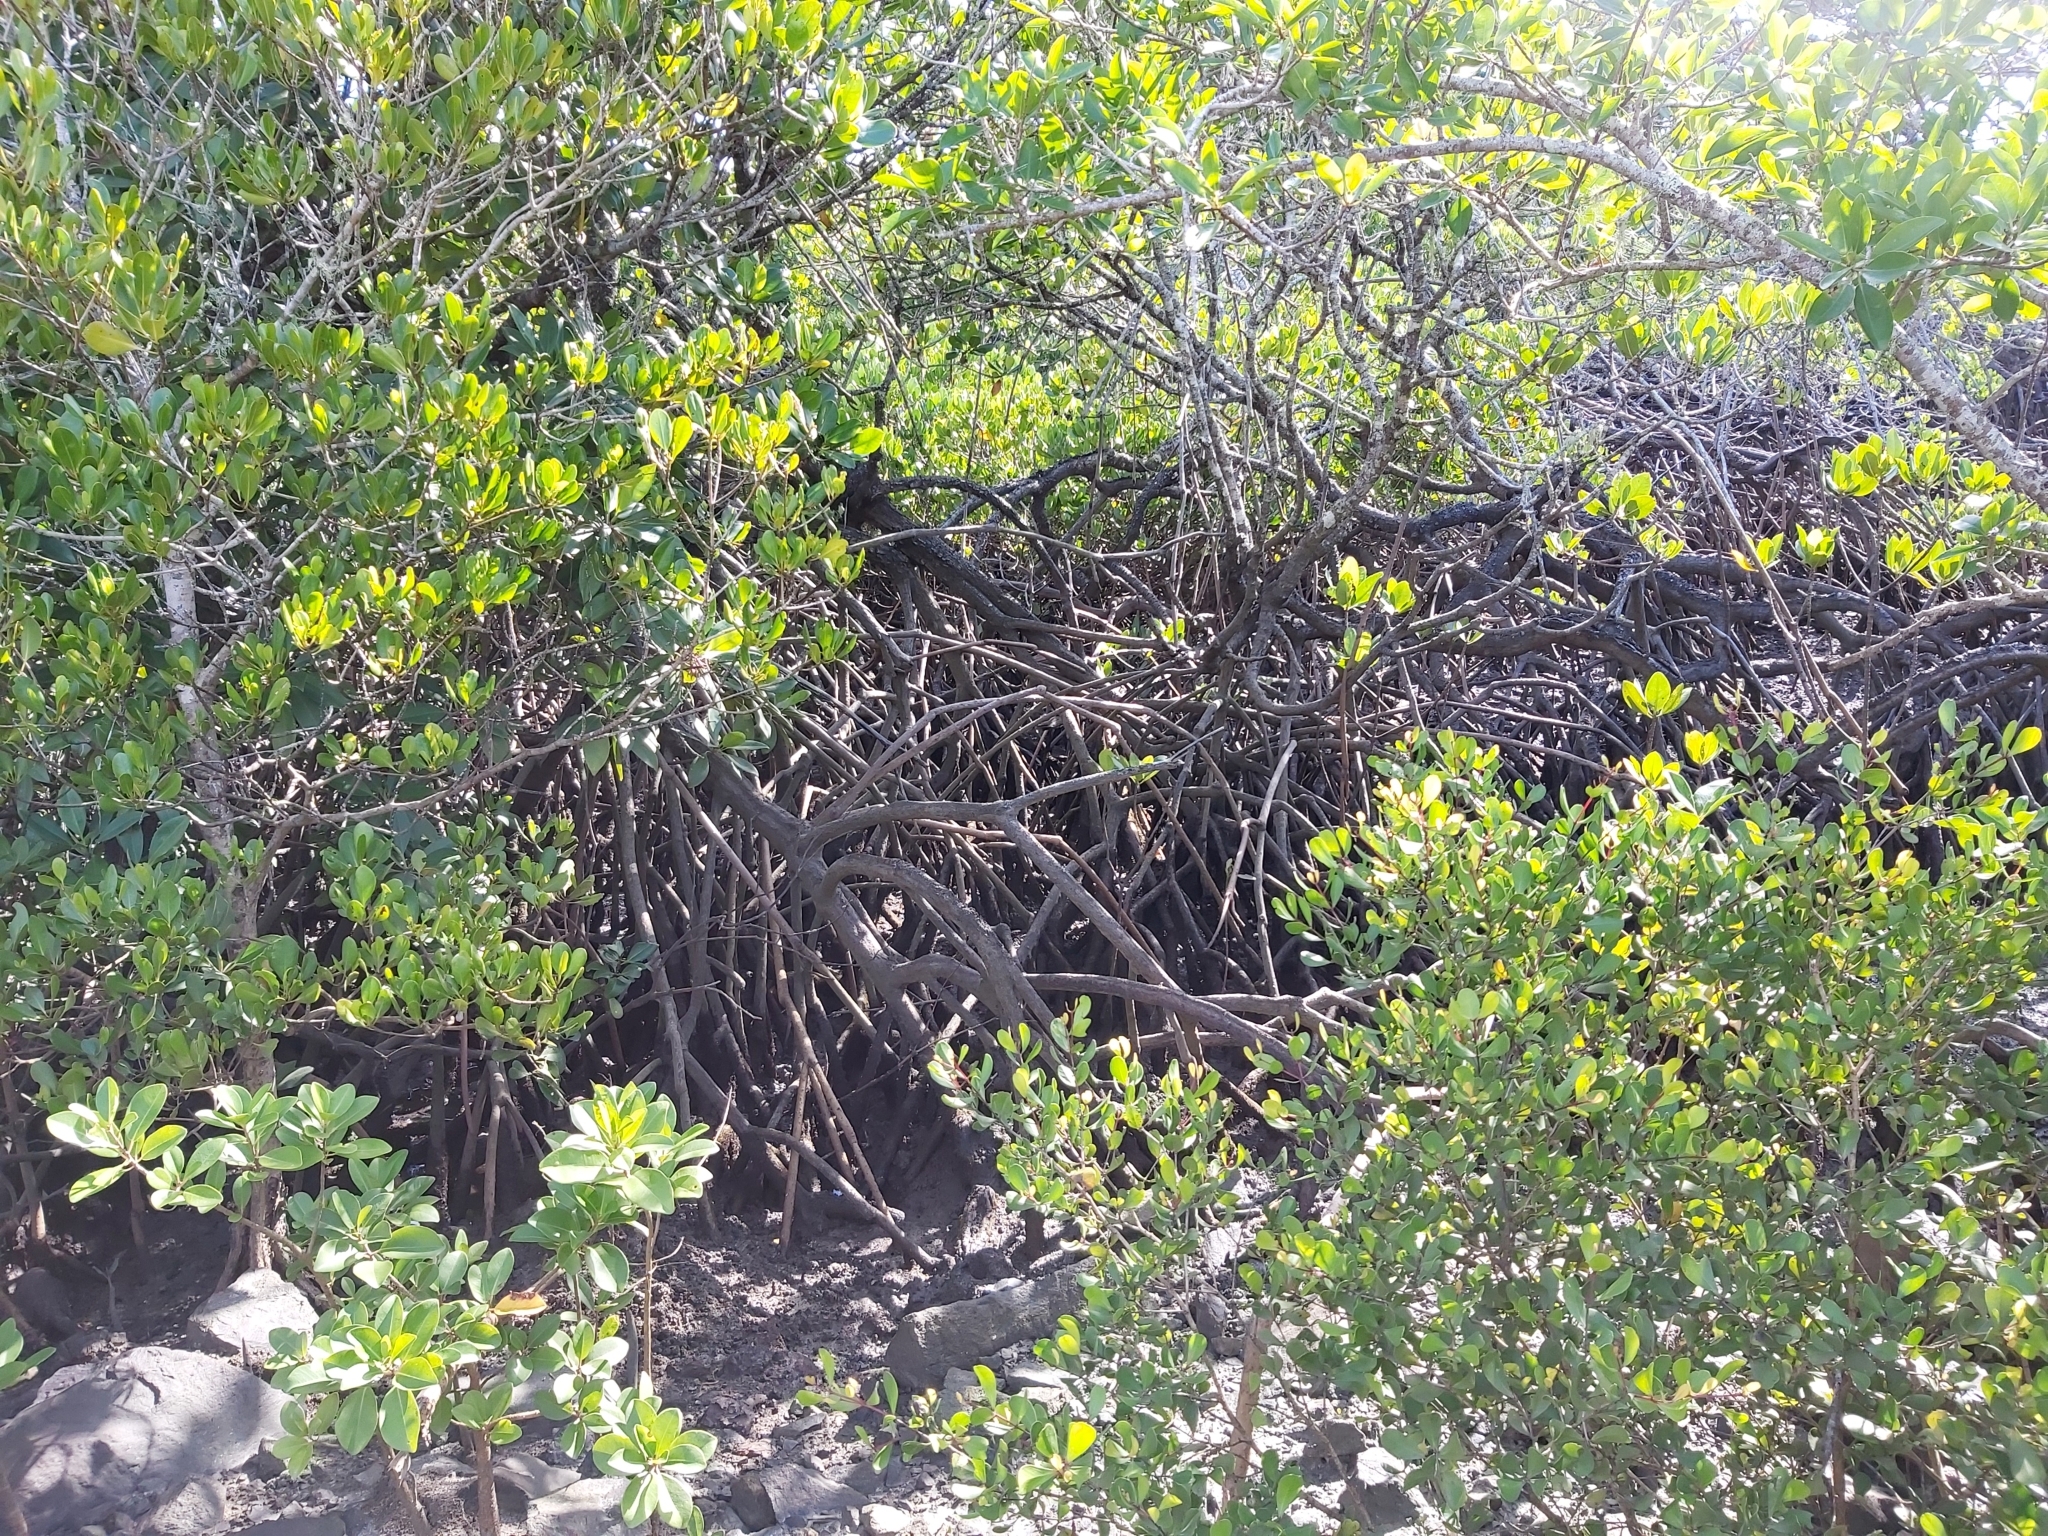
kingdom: Plantae
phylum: Tracheophyta
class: Magnoliopsida
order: Malpighiales
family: Rhizophoraceae
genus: Rhizophora
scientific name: Rhizophora stylosa
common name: Red mangrove
